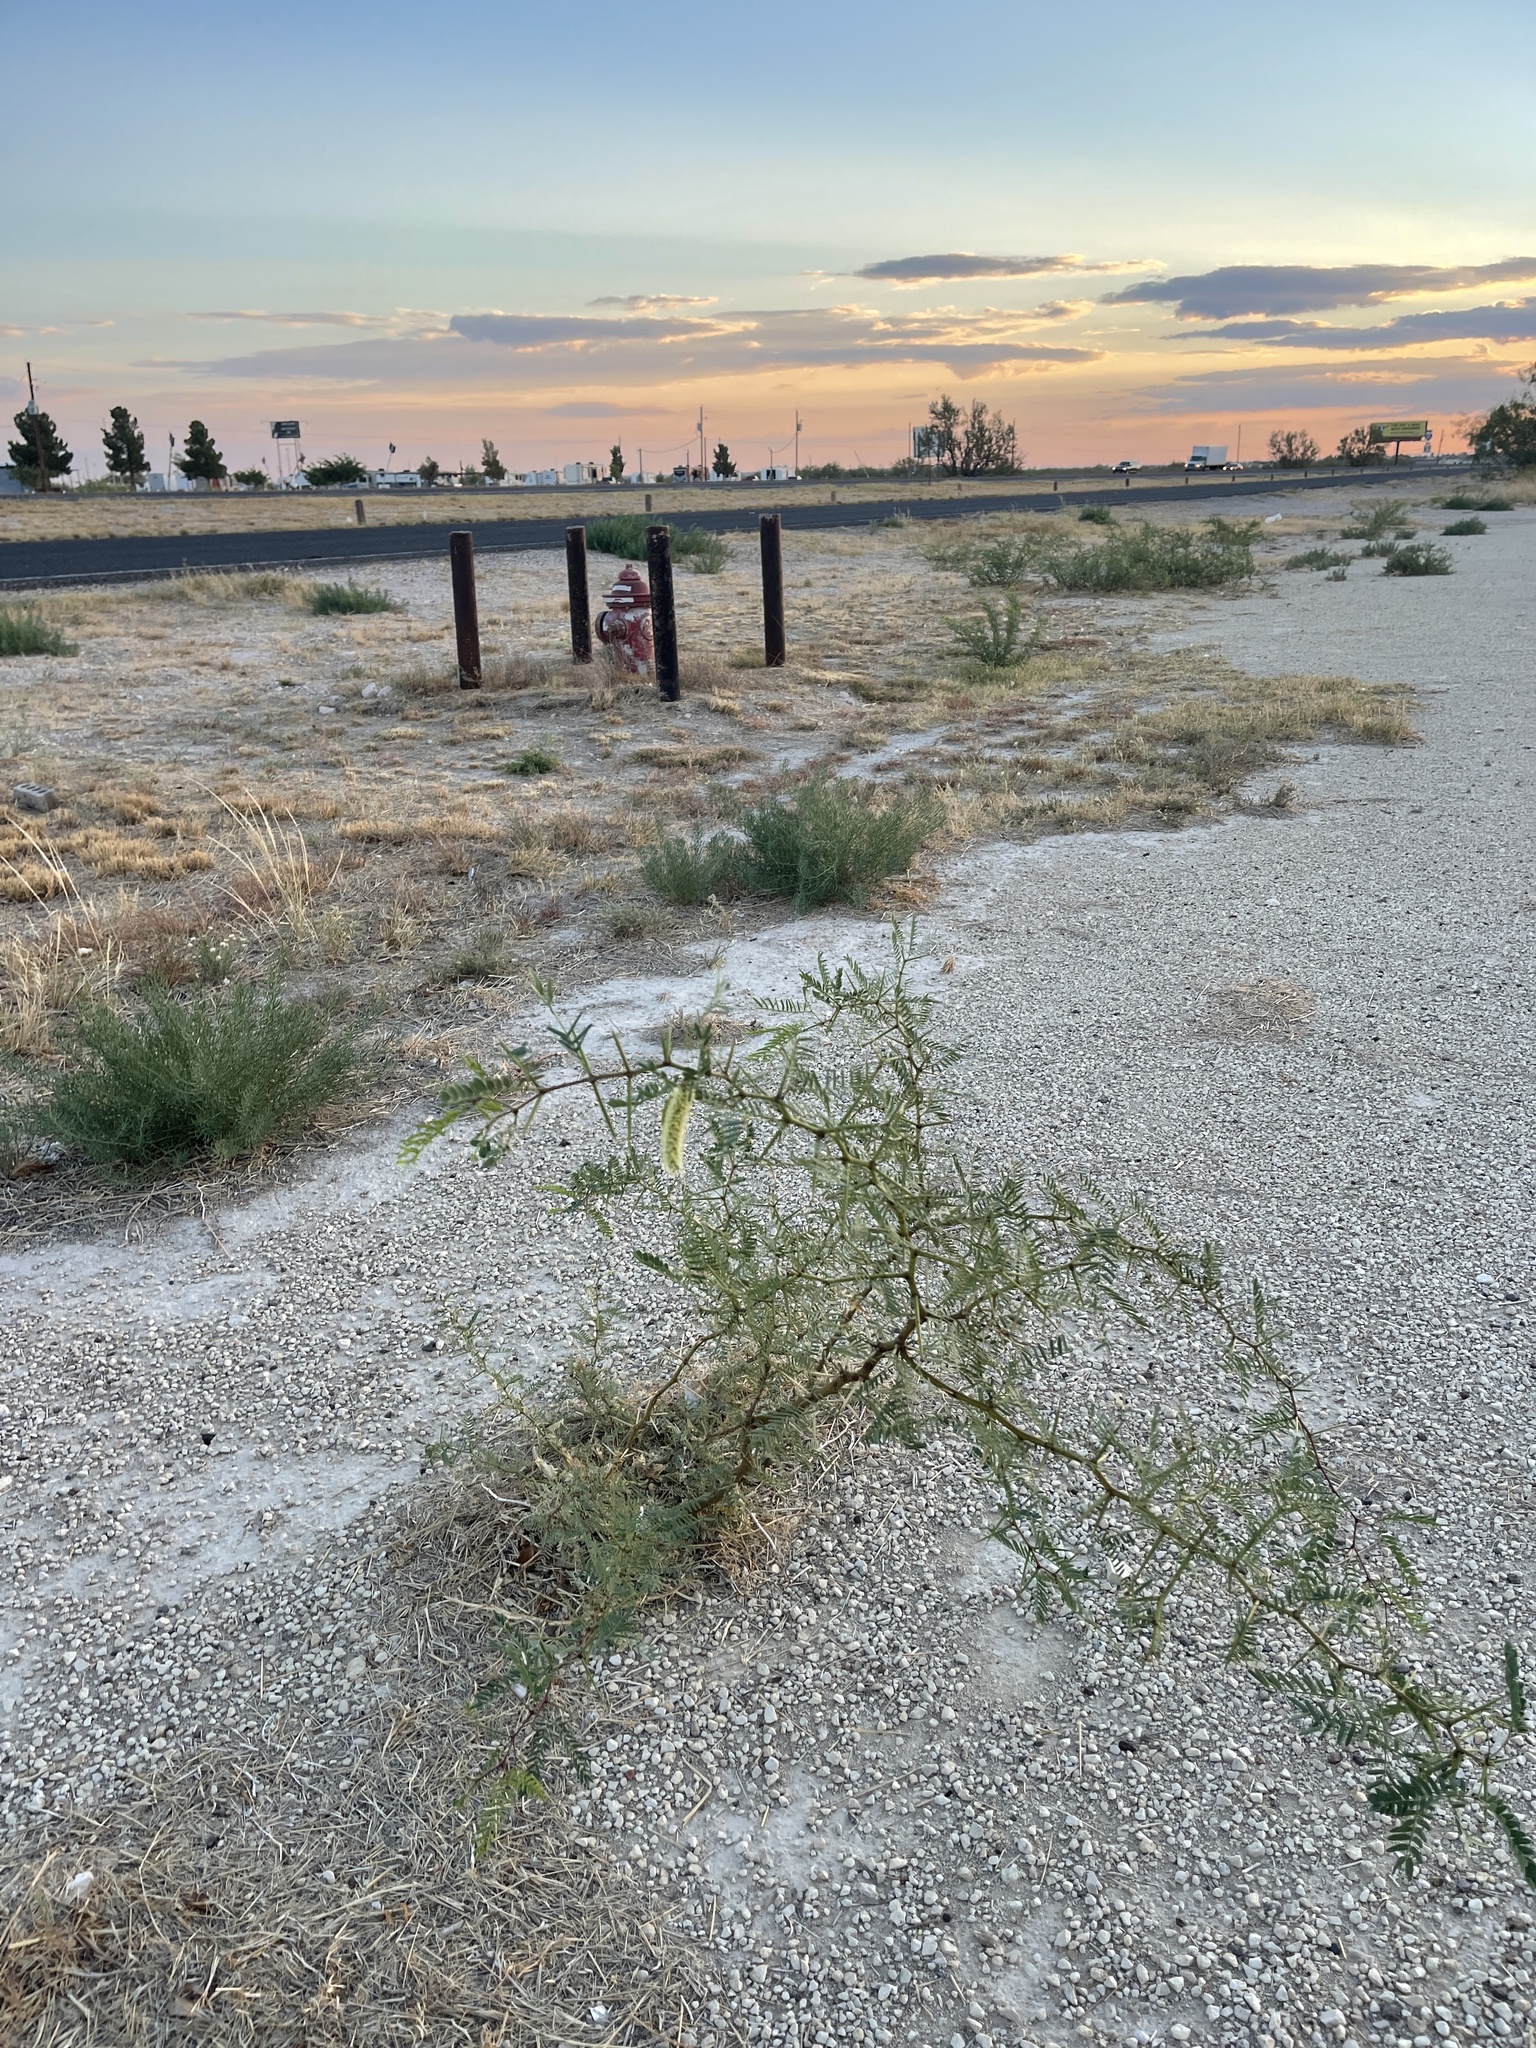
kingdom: Plantae
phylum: Tracheophyta
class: Magnoliopsida
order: Fabales
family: Fabaceae
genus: Prosopis
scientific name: Prosopis glandulosa
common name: Honey mesquite
